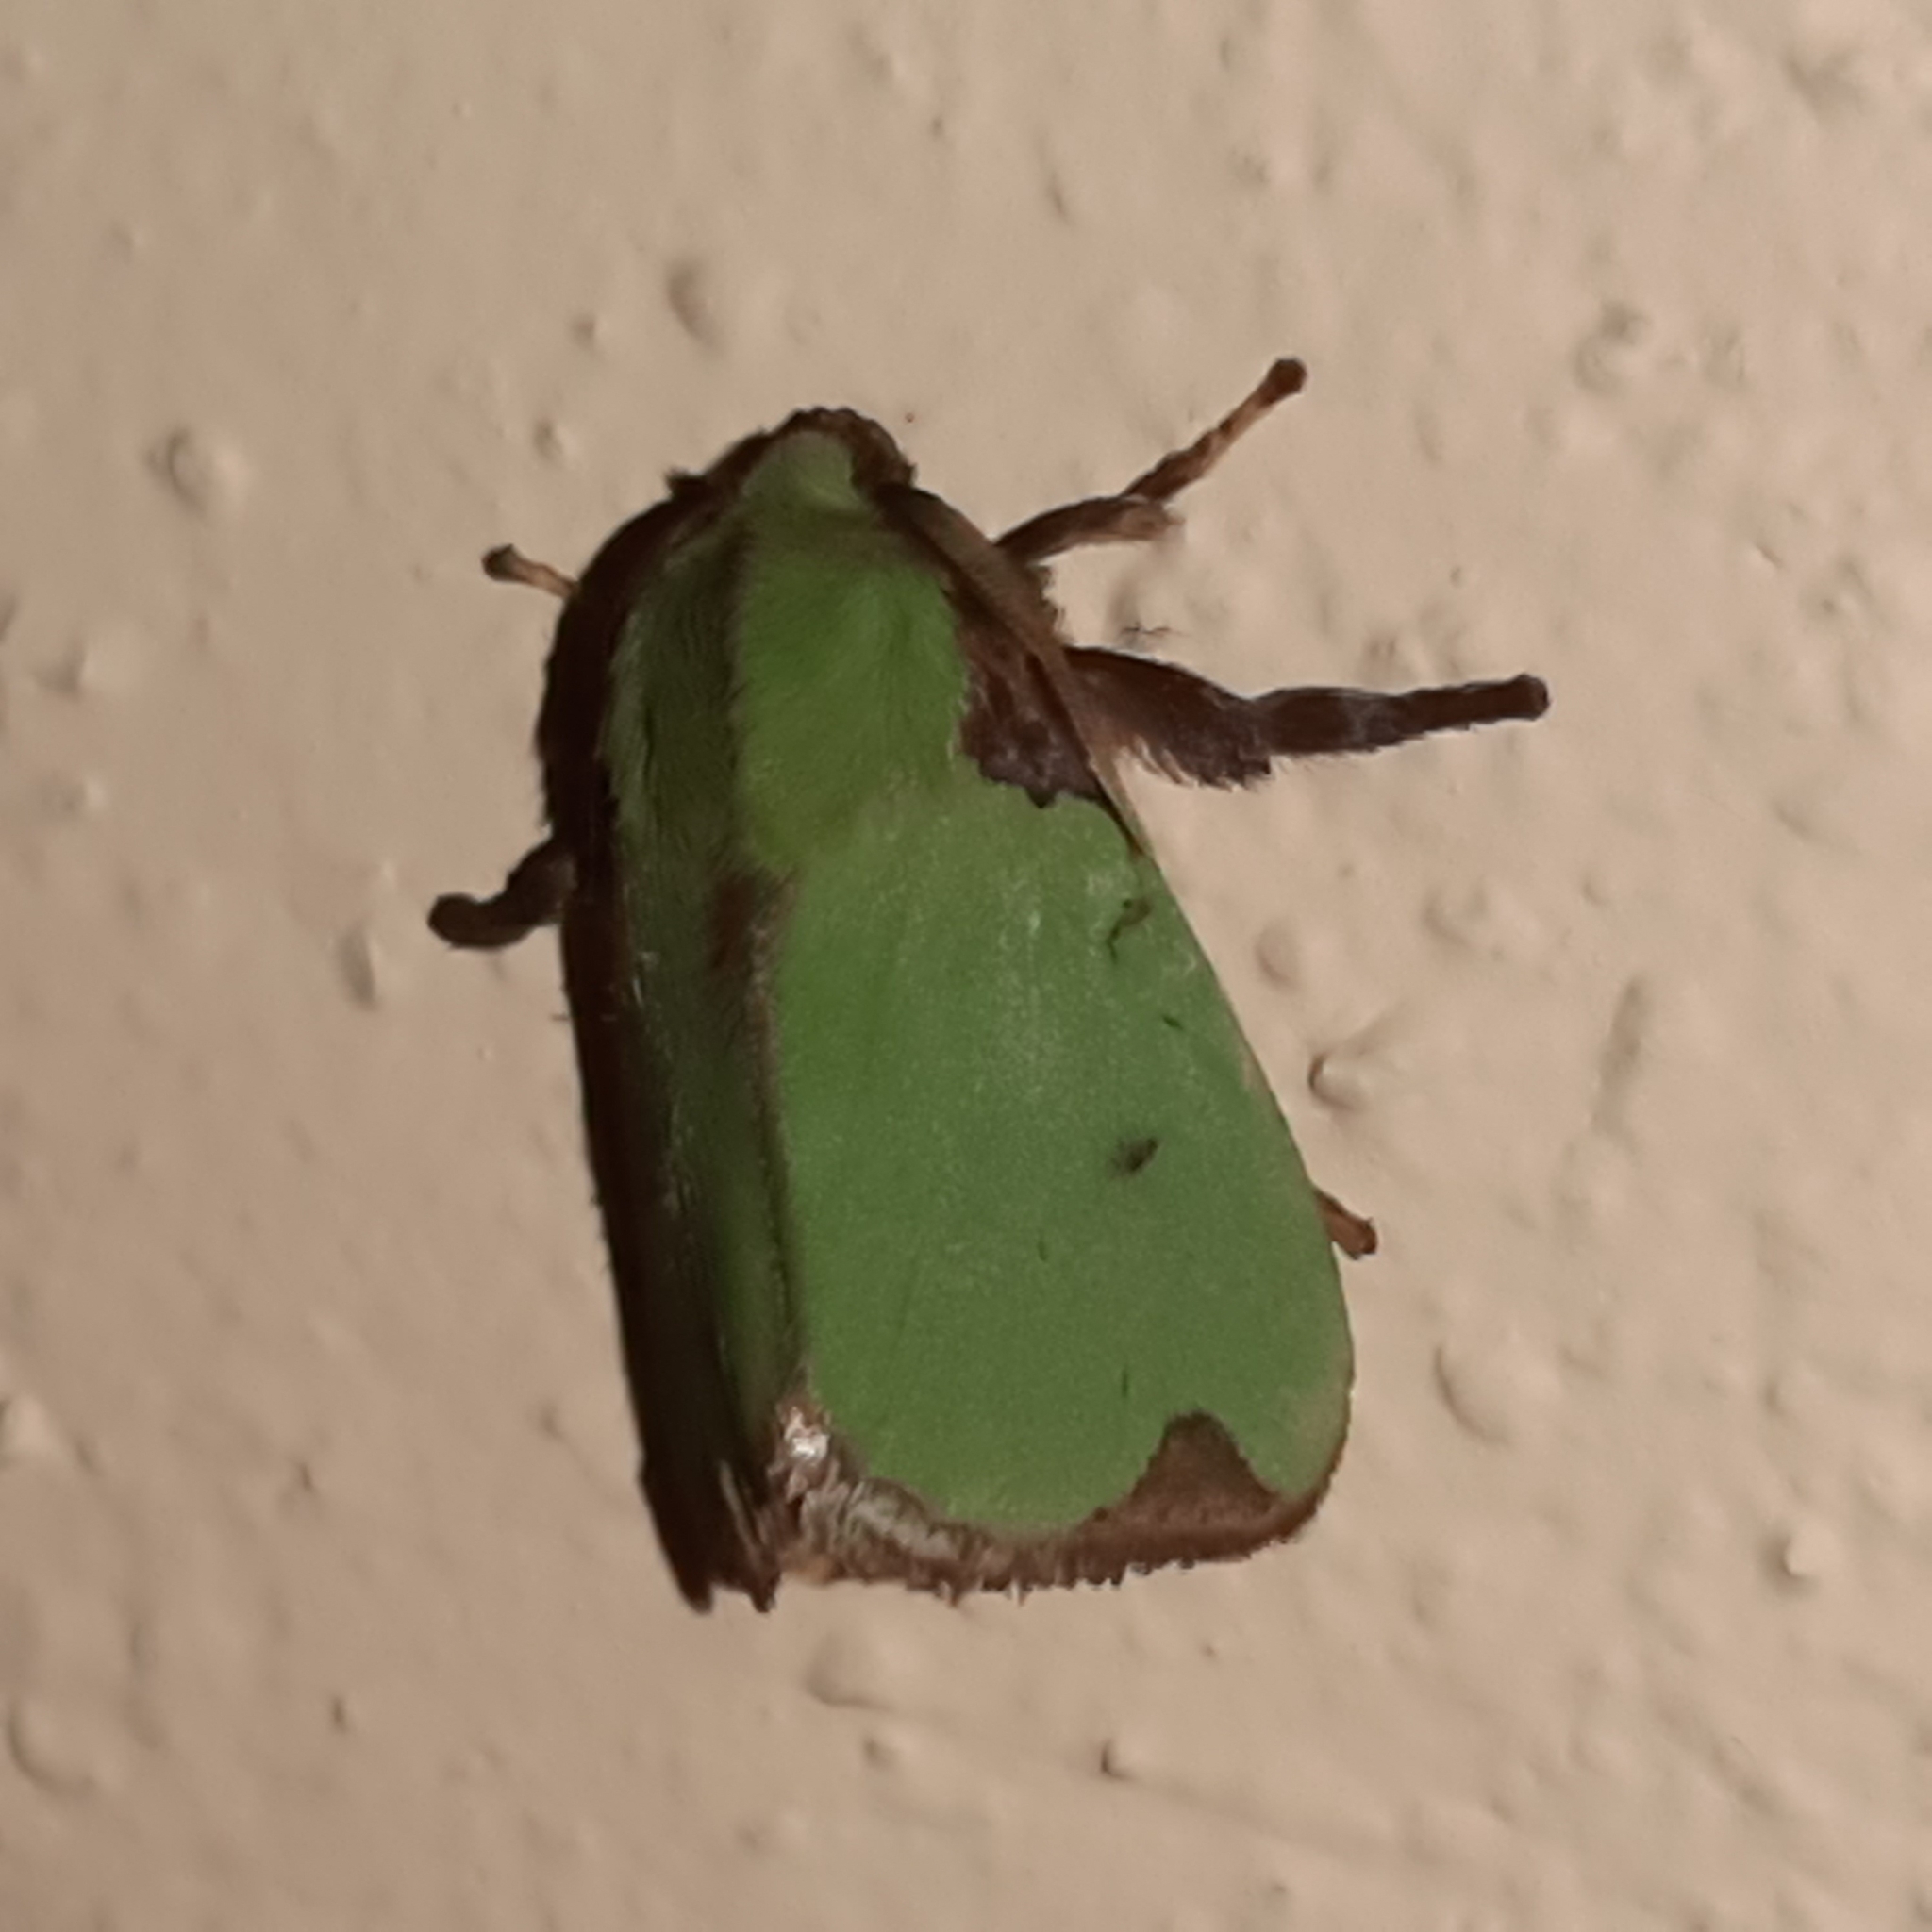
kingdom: Animalia
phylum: Arthropoda
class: Insecta
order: Lepidoptera
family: Limacodidae
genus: Parasa
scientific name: Parasa wellesca
